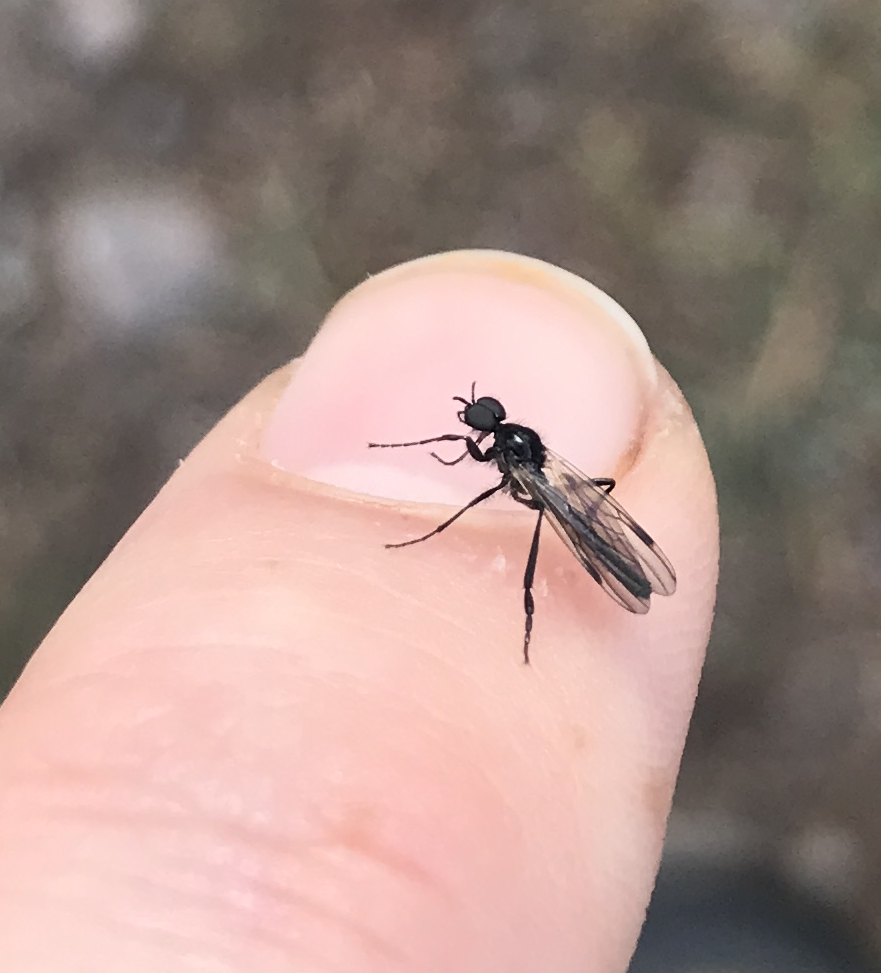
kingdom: Animalia
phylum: Arthropoda
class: Insecta
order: Diptera
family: Bibionidae
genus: Bibio
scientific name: Bibio slossonae
